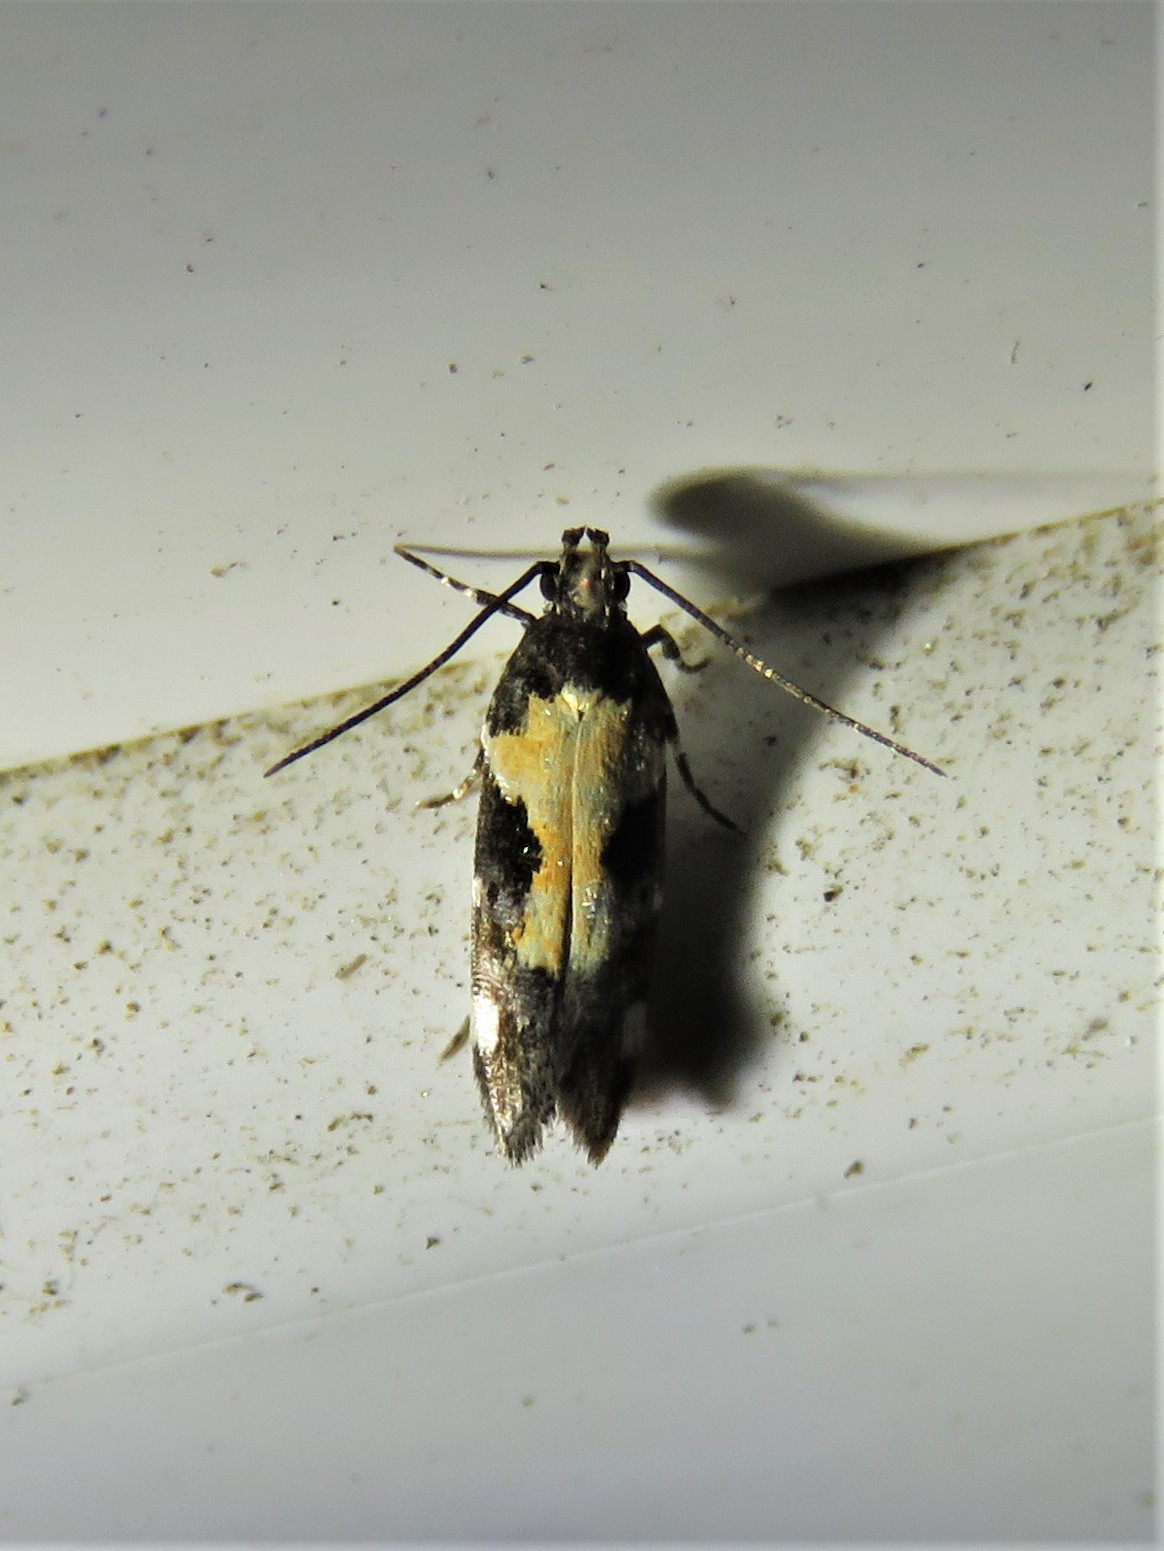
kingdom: Animalia
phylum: Arthropoda
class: Insecta
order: Lepidoptera
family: Gelechiidae
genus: Stegasta
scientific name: Stegasta bosqueella
